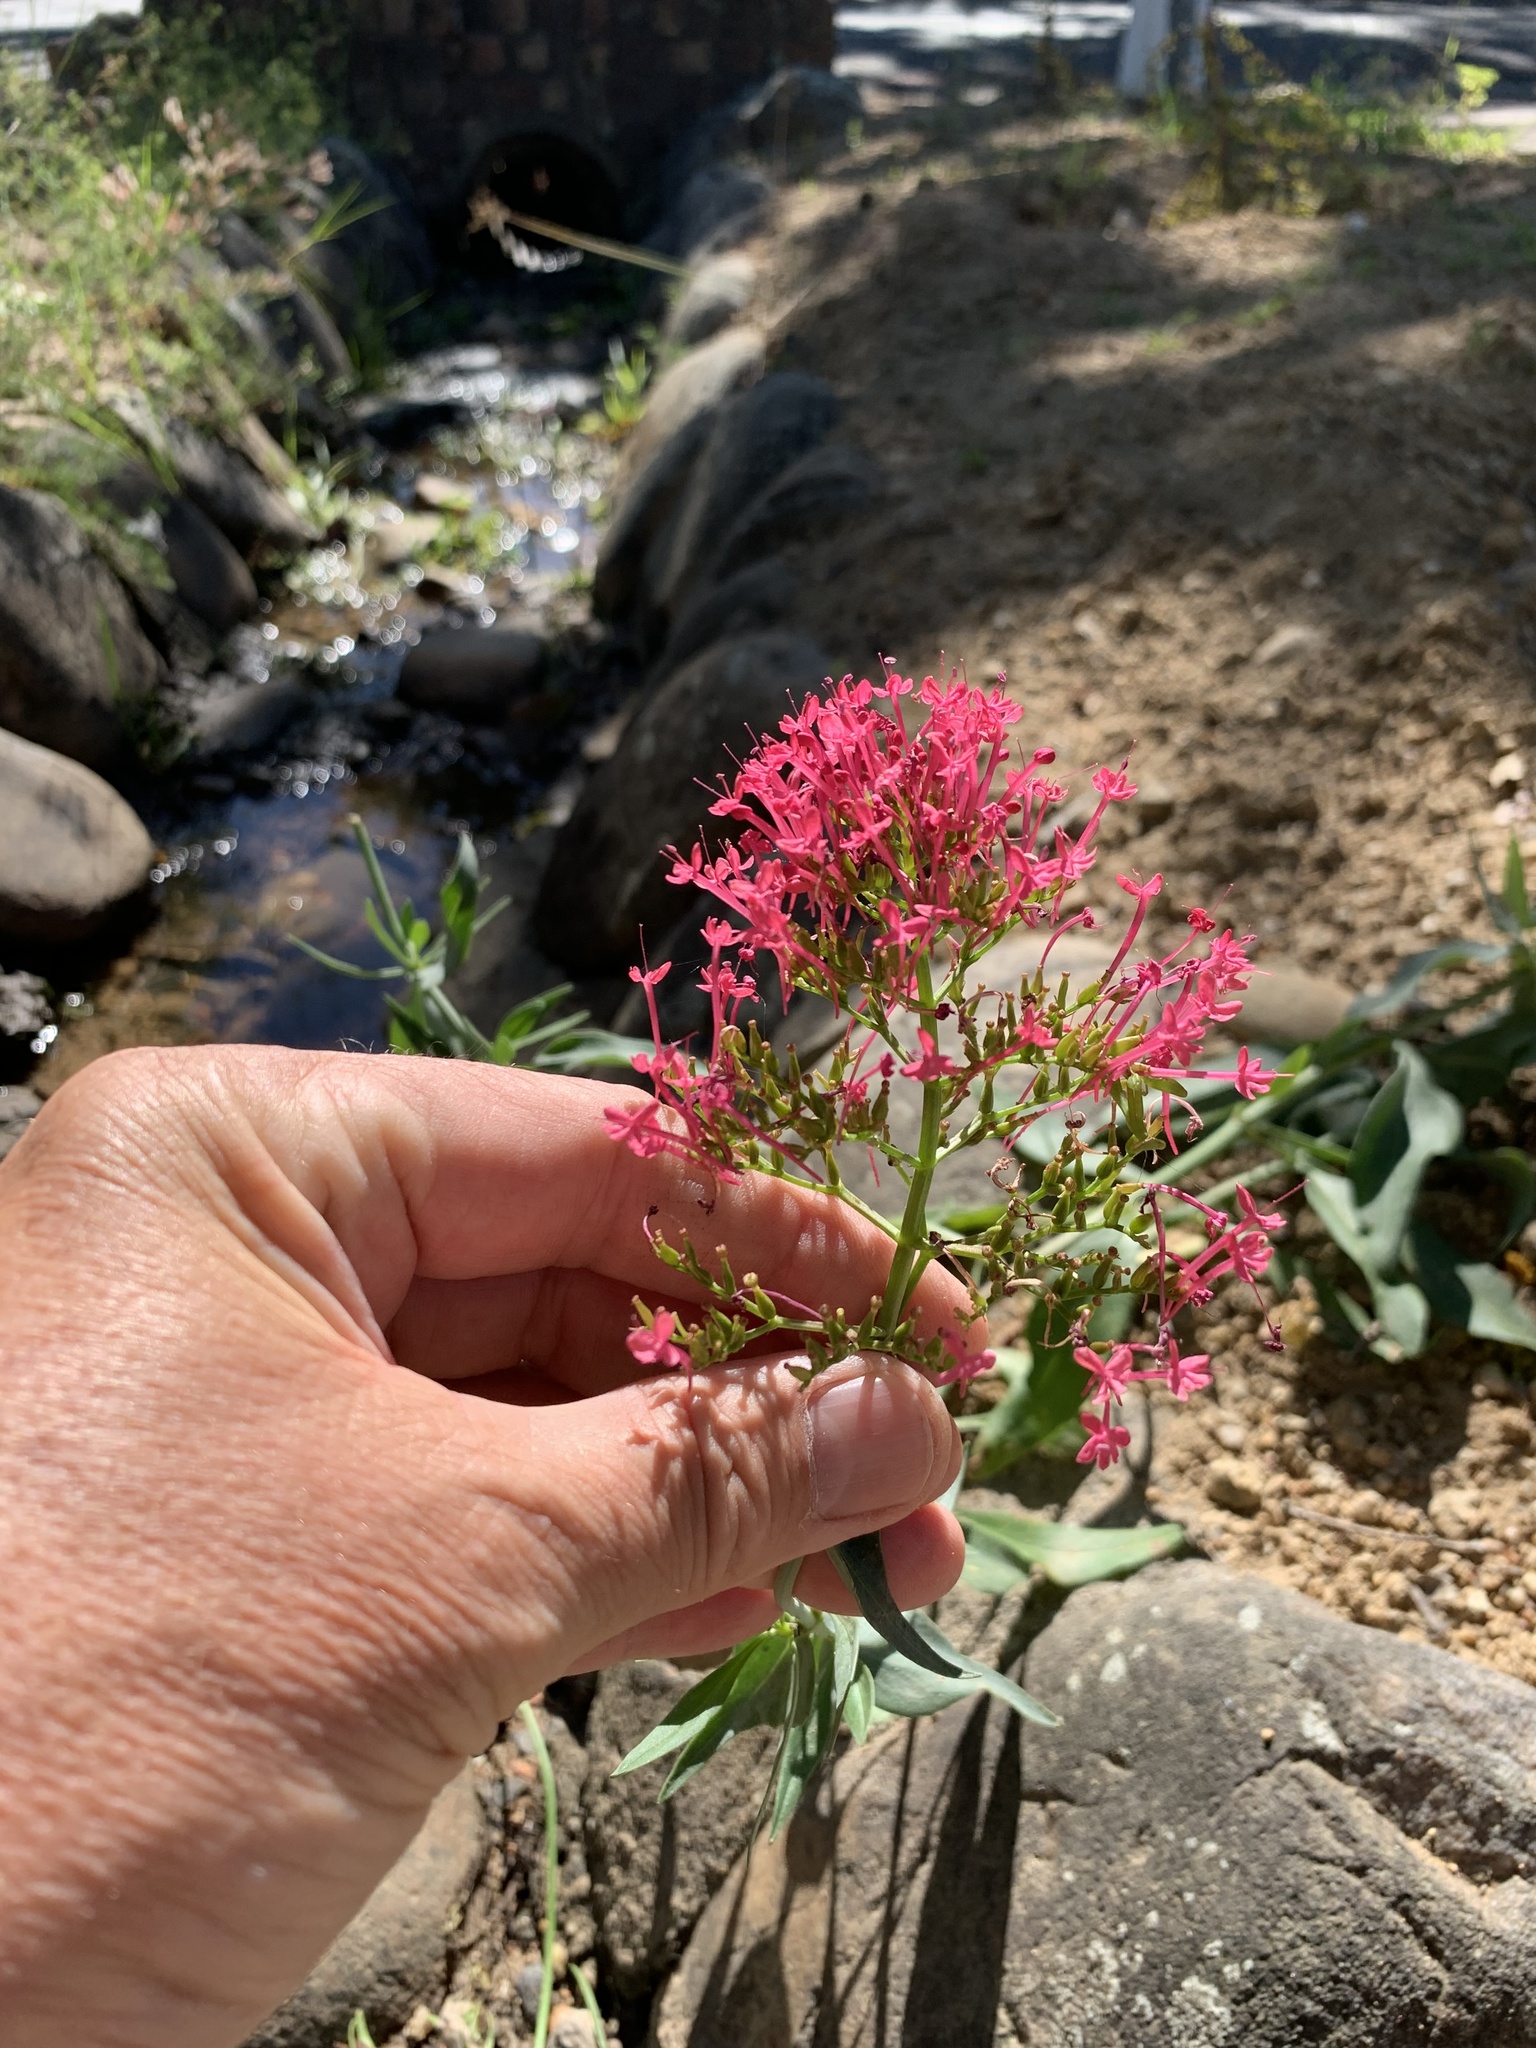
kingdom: Plantae
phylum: Tracheophyta
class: Magnoliopsida
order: Dipsacales
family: Caprifoliaceae
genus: Centranthus
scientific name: Centranthus ruber
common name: Red valerian
